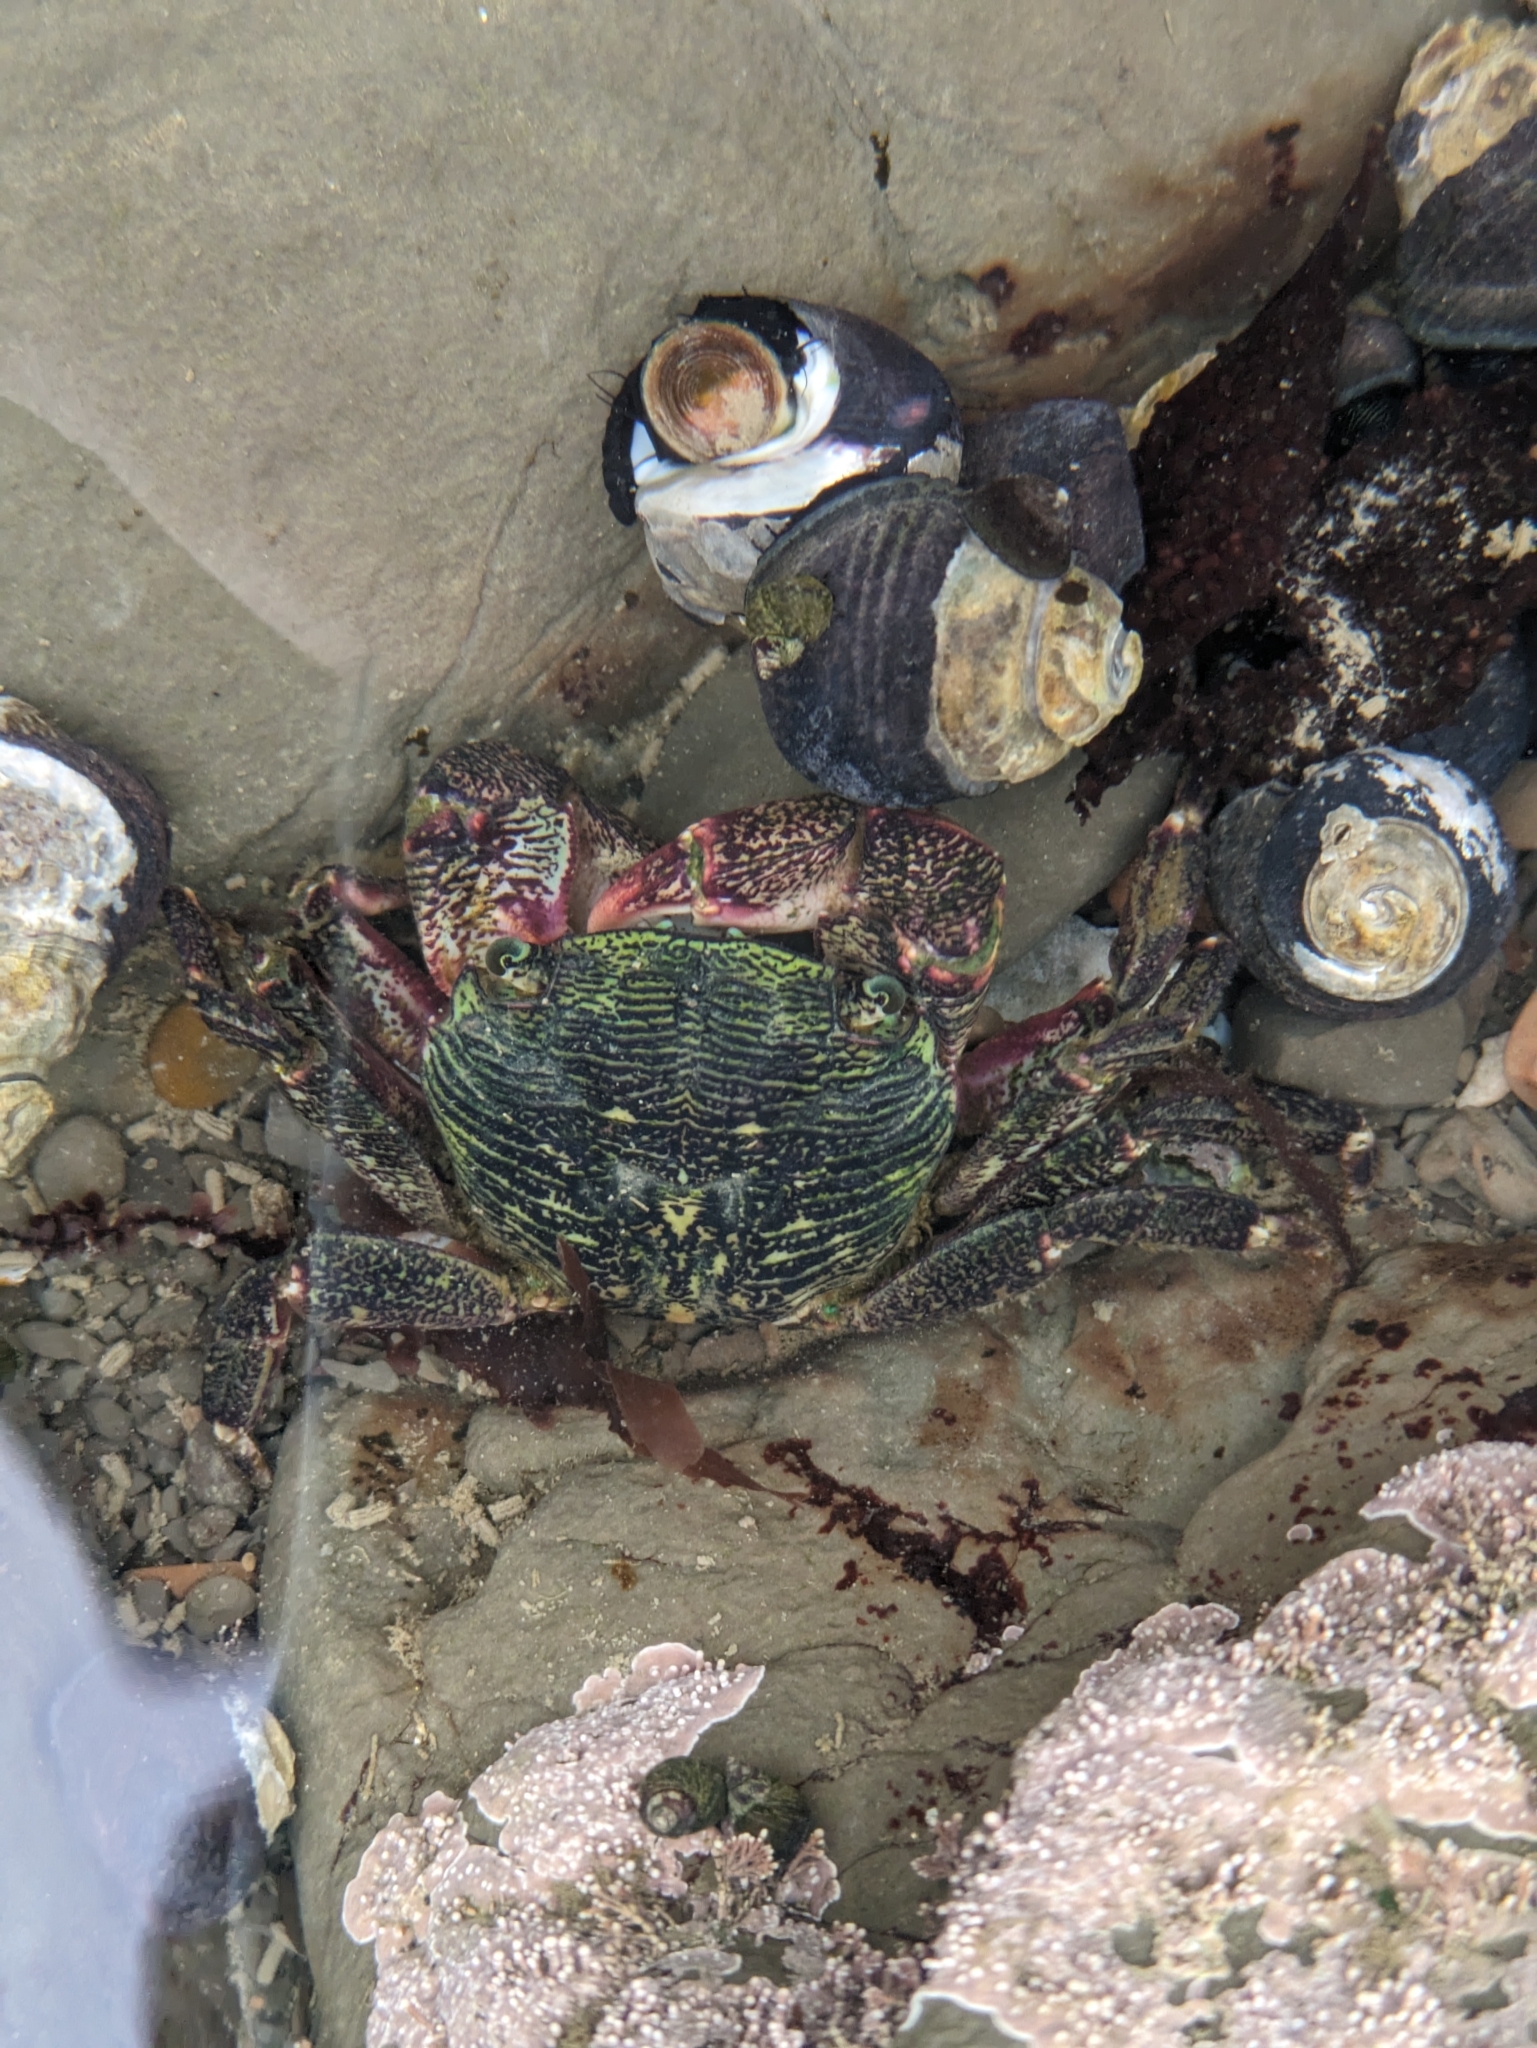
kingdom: Animalia
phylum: Arthropoda
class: Malacostraca
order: Decapoda
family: Grapsidae
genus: Pachygrapsus
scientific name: Pachygrapsus crassipes
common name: Striped shore crab
